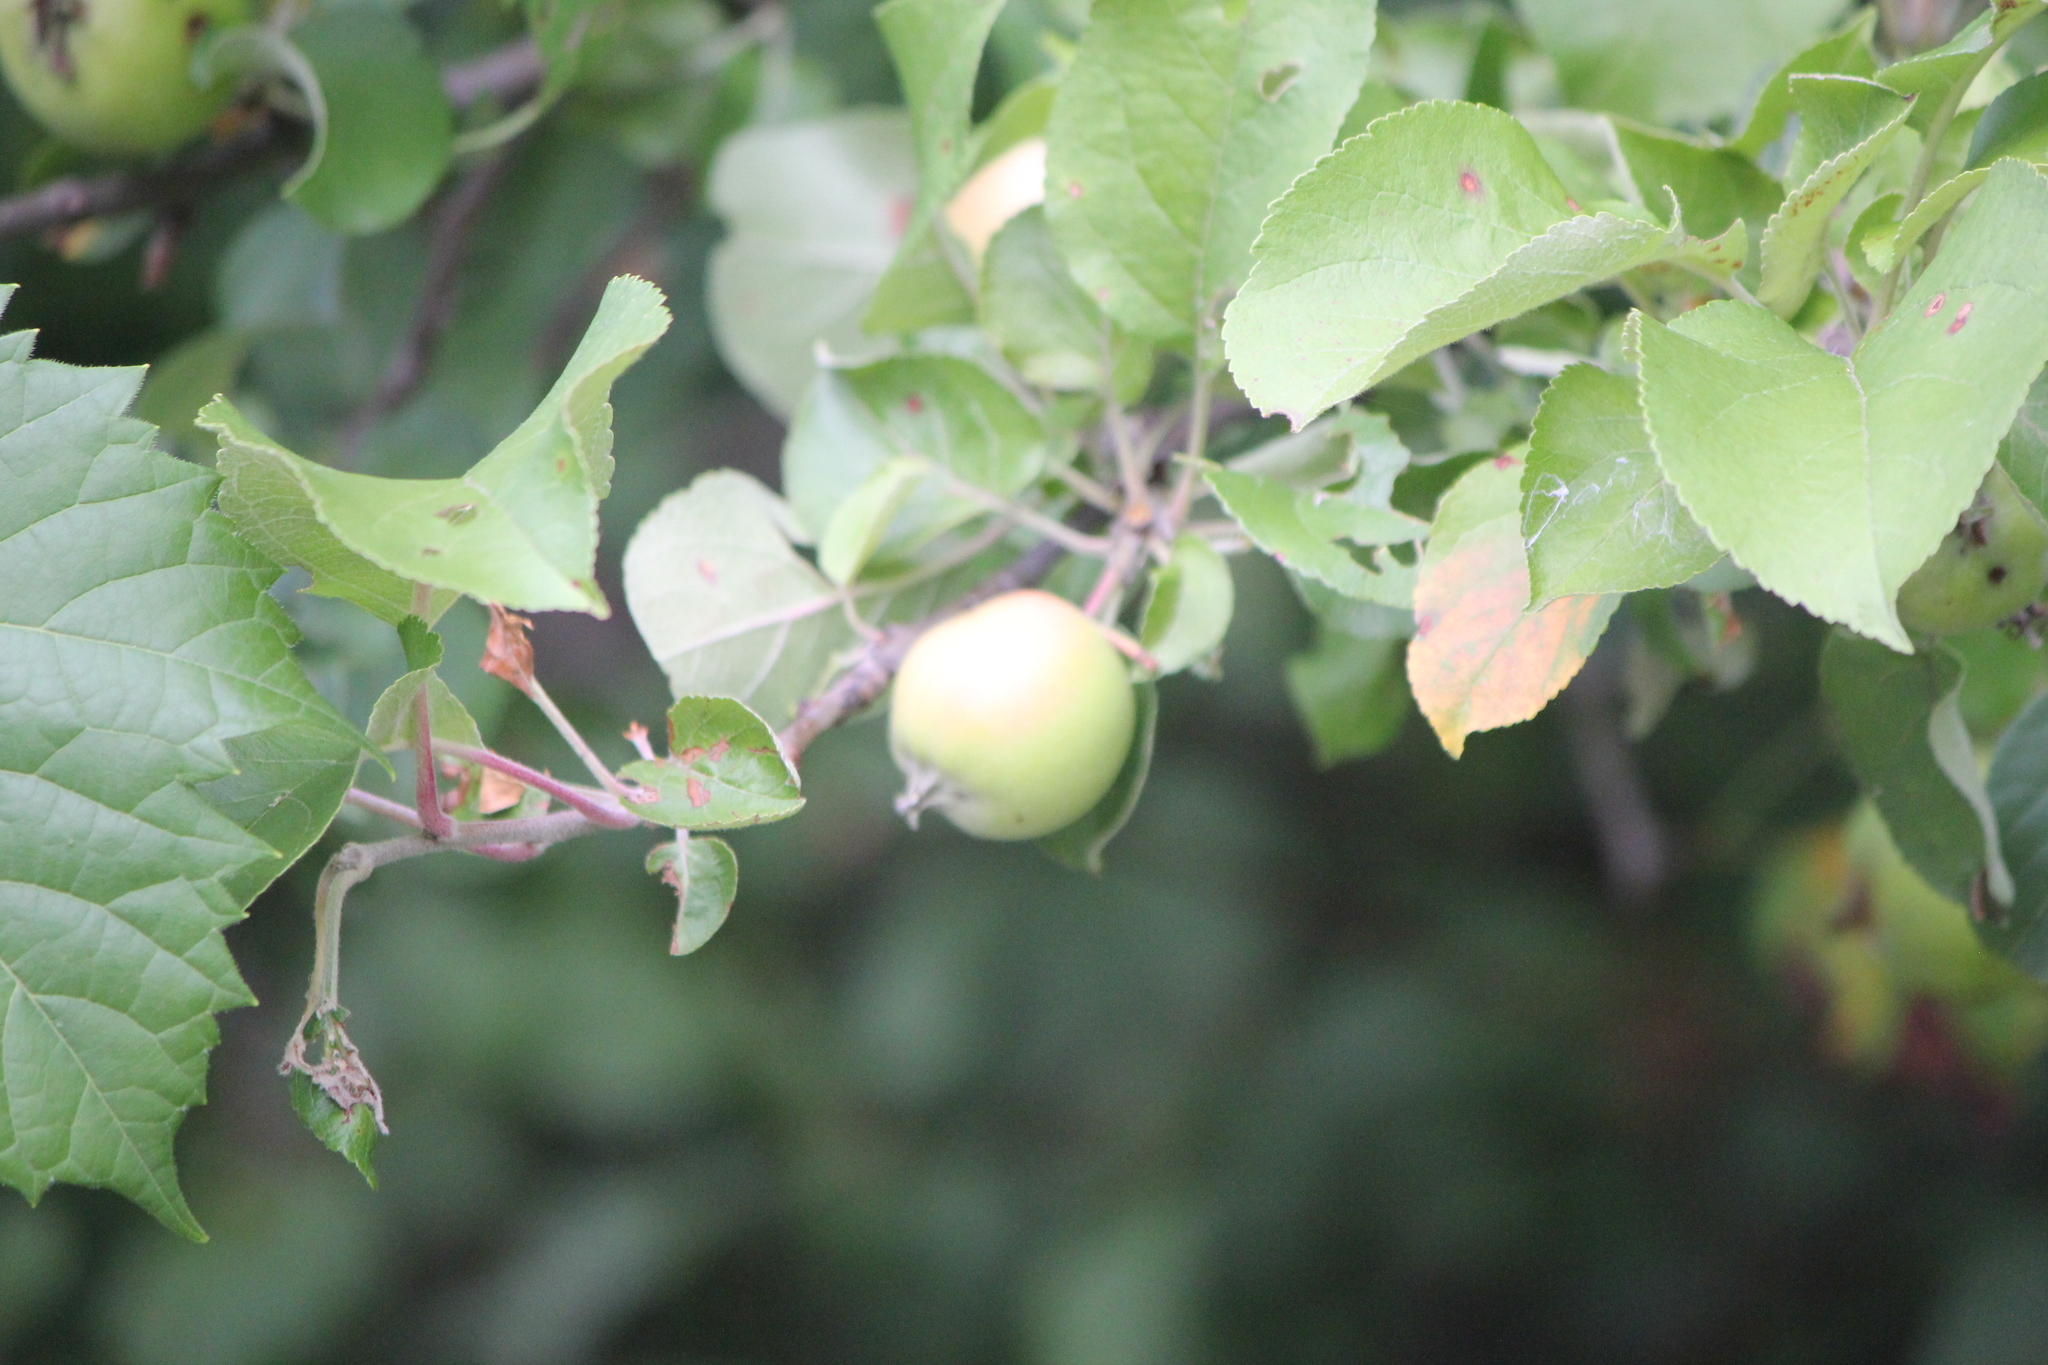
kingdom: Plantae
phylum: Tracheophyta
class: Magnoliopsida
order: Rosales
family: Rosaceae
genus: Malus
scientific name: Malus domestica
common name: Apple
